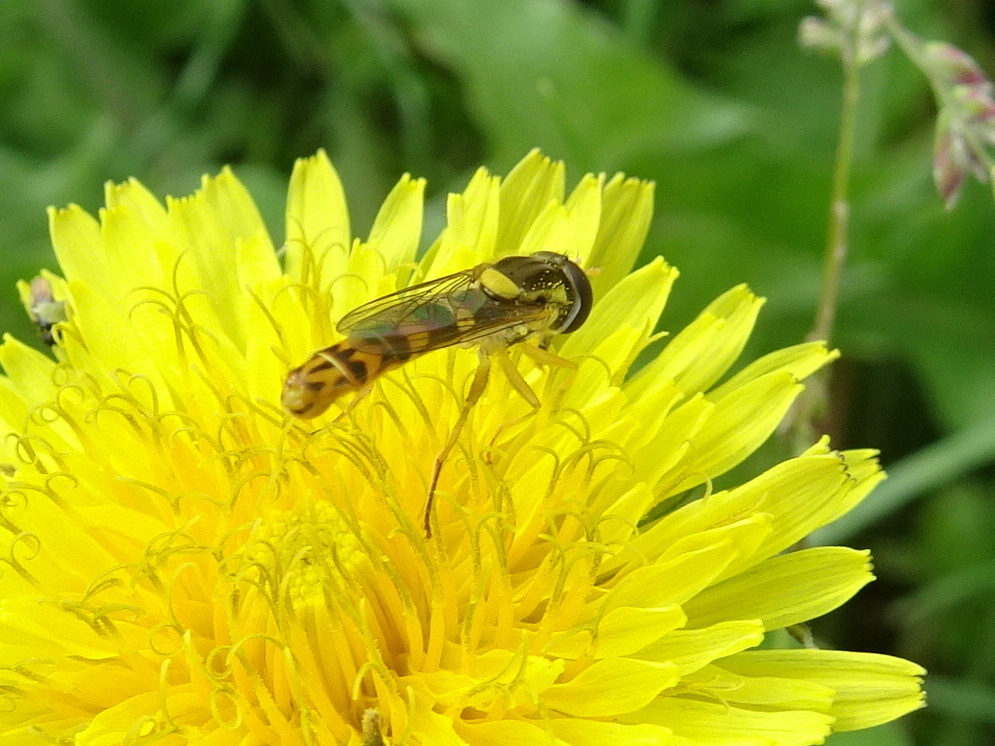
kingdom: Animalia
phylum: Arthropoda
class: Insecta
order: Diptera
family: Syrphidae
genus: Sphaerophoria
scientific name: Sphaerophoria scripta
